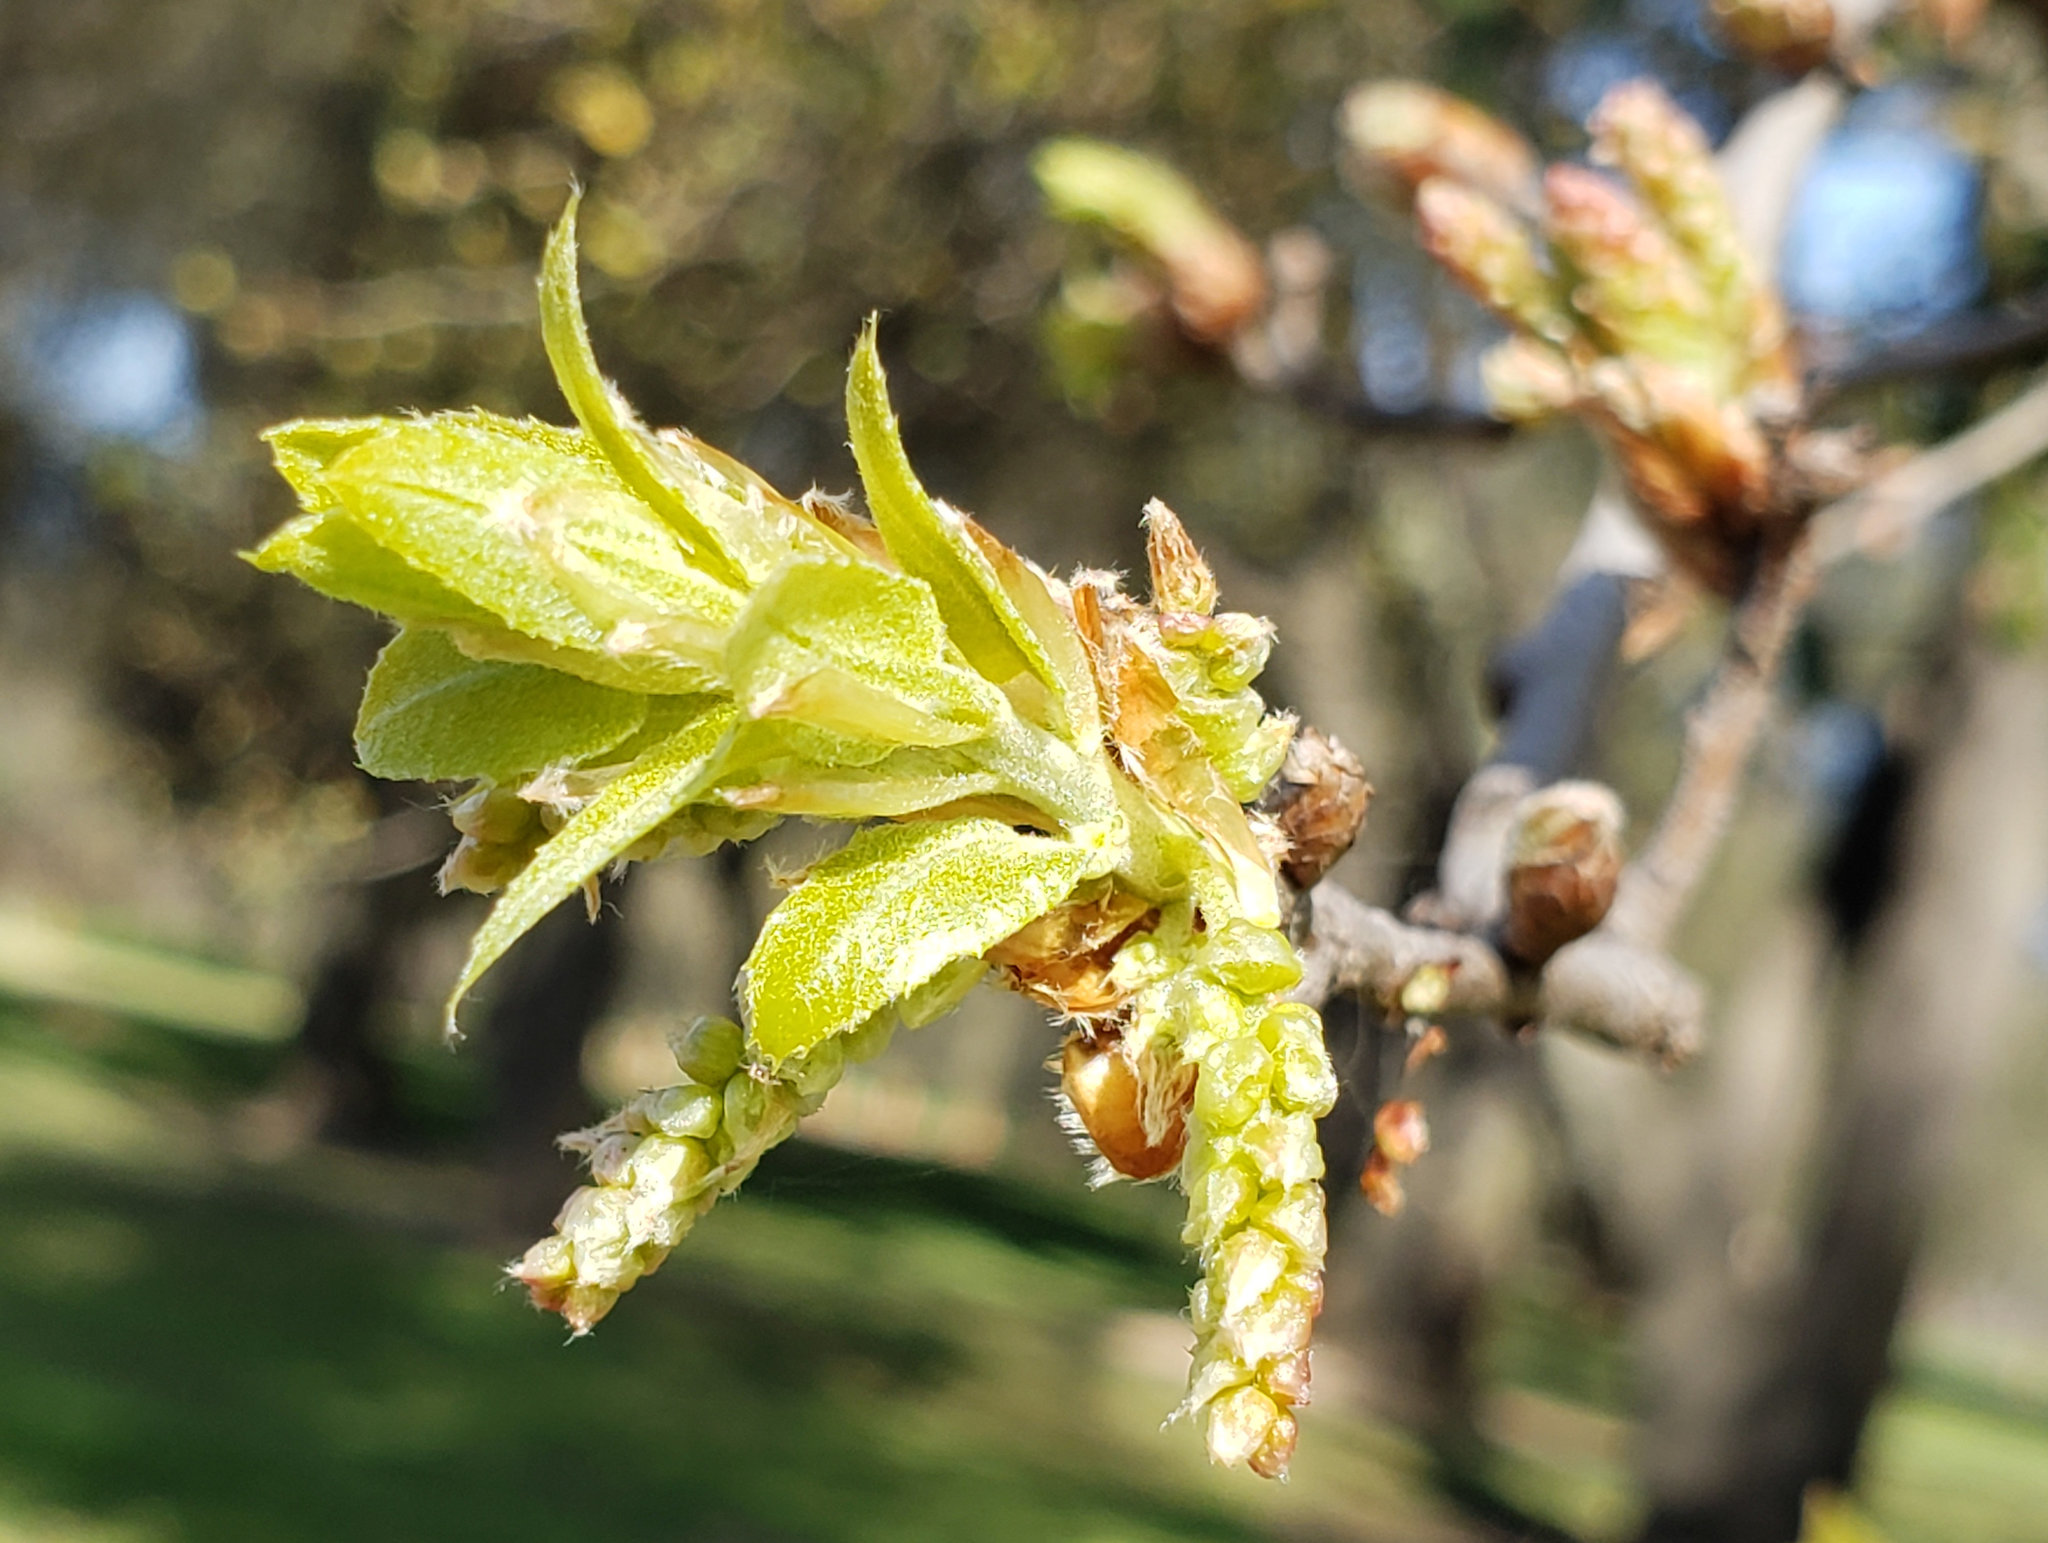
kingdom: Plantae
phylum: Tracheophyta
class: Magnoliopsida
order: Fagales
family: Fagaceae
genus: Quercus
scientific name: Quercus wislizeni
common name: Interior live oak
